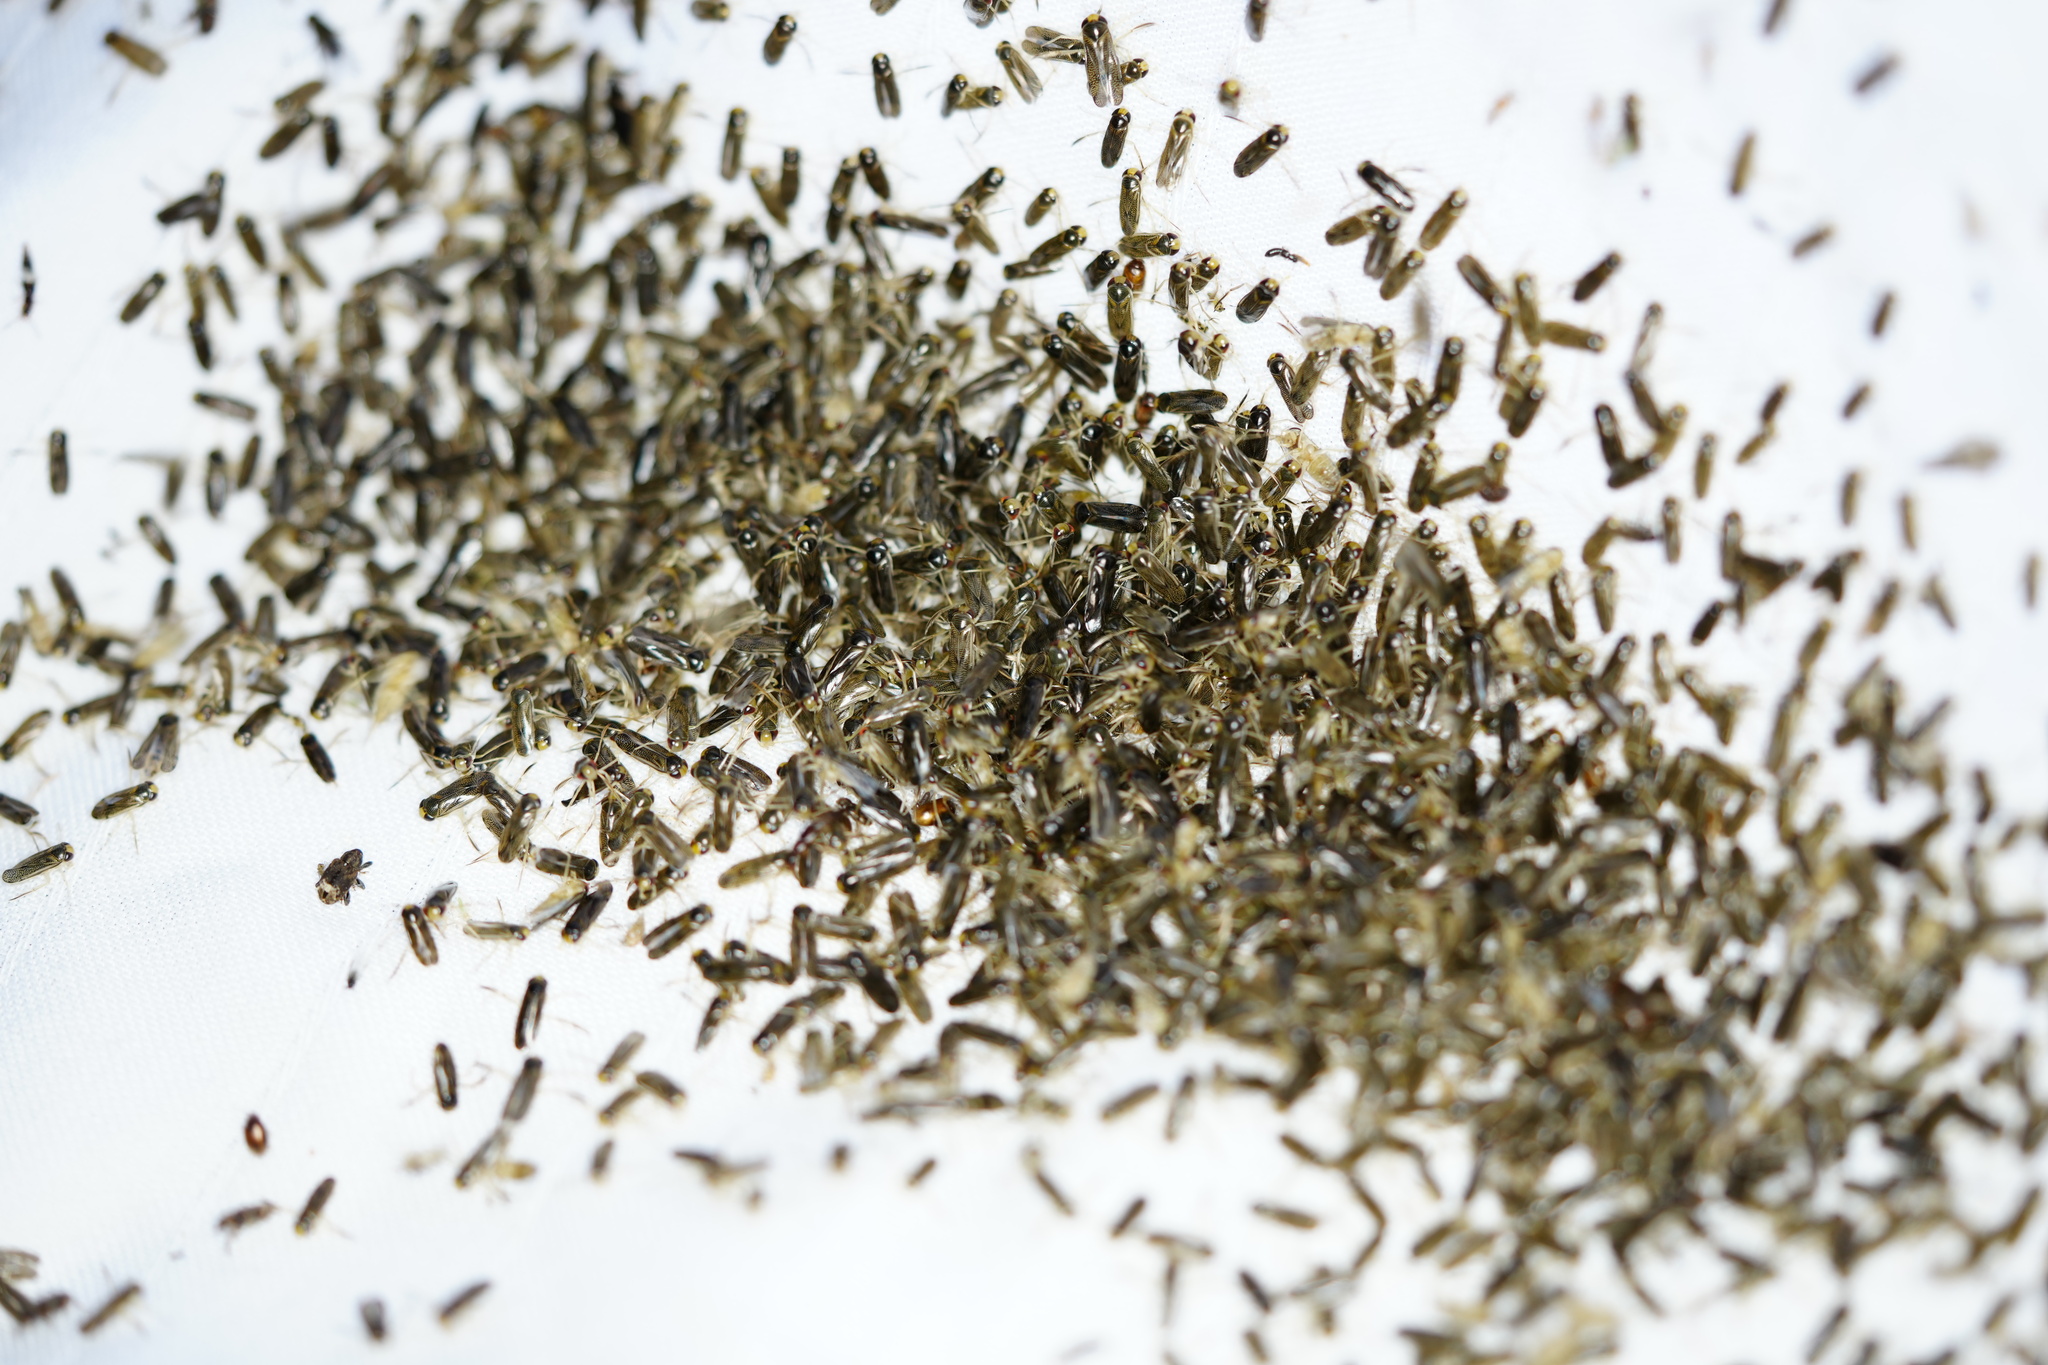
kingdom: Animalia
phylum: Arthropoda
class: Insecta
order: Hemiptera
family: Corixidae
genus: Trichocorixa
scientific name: Trichocorixa
